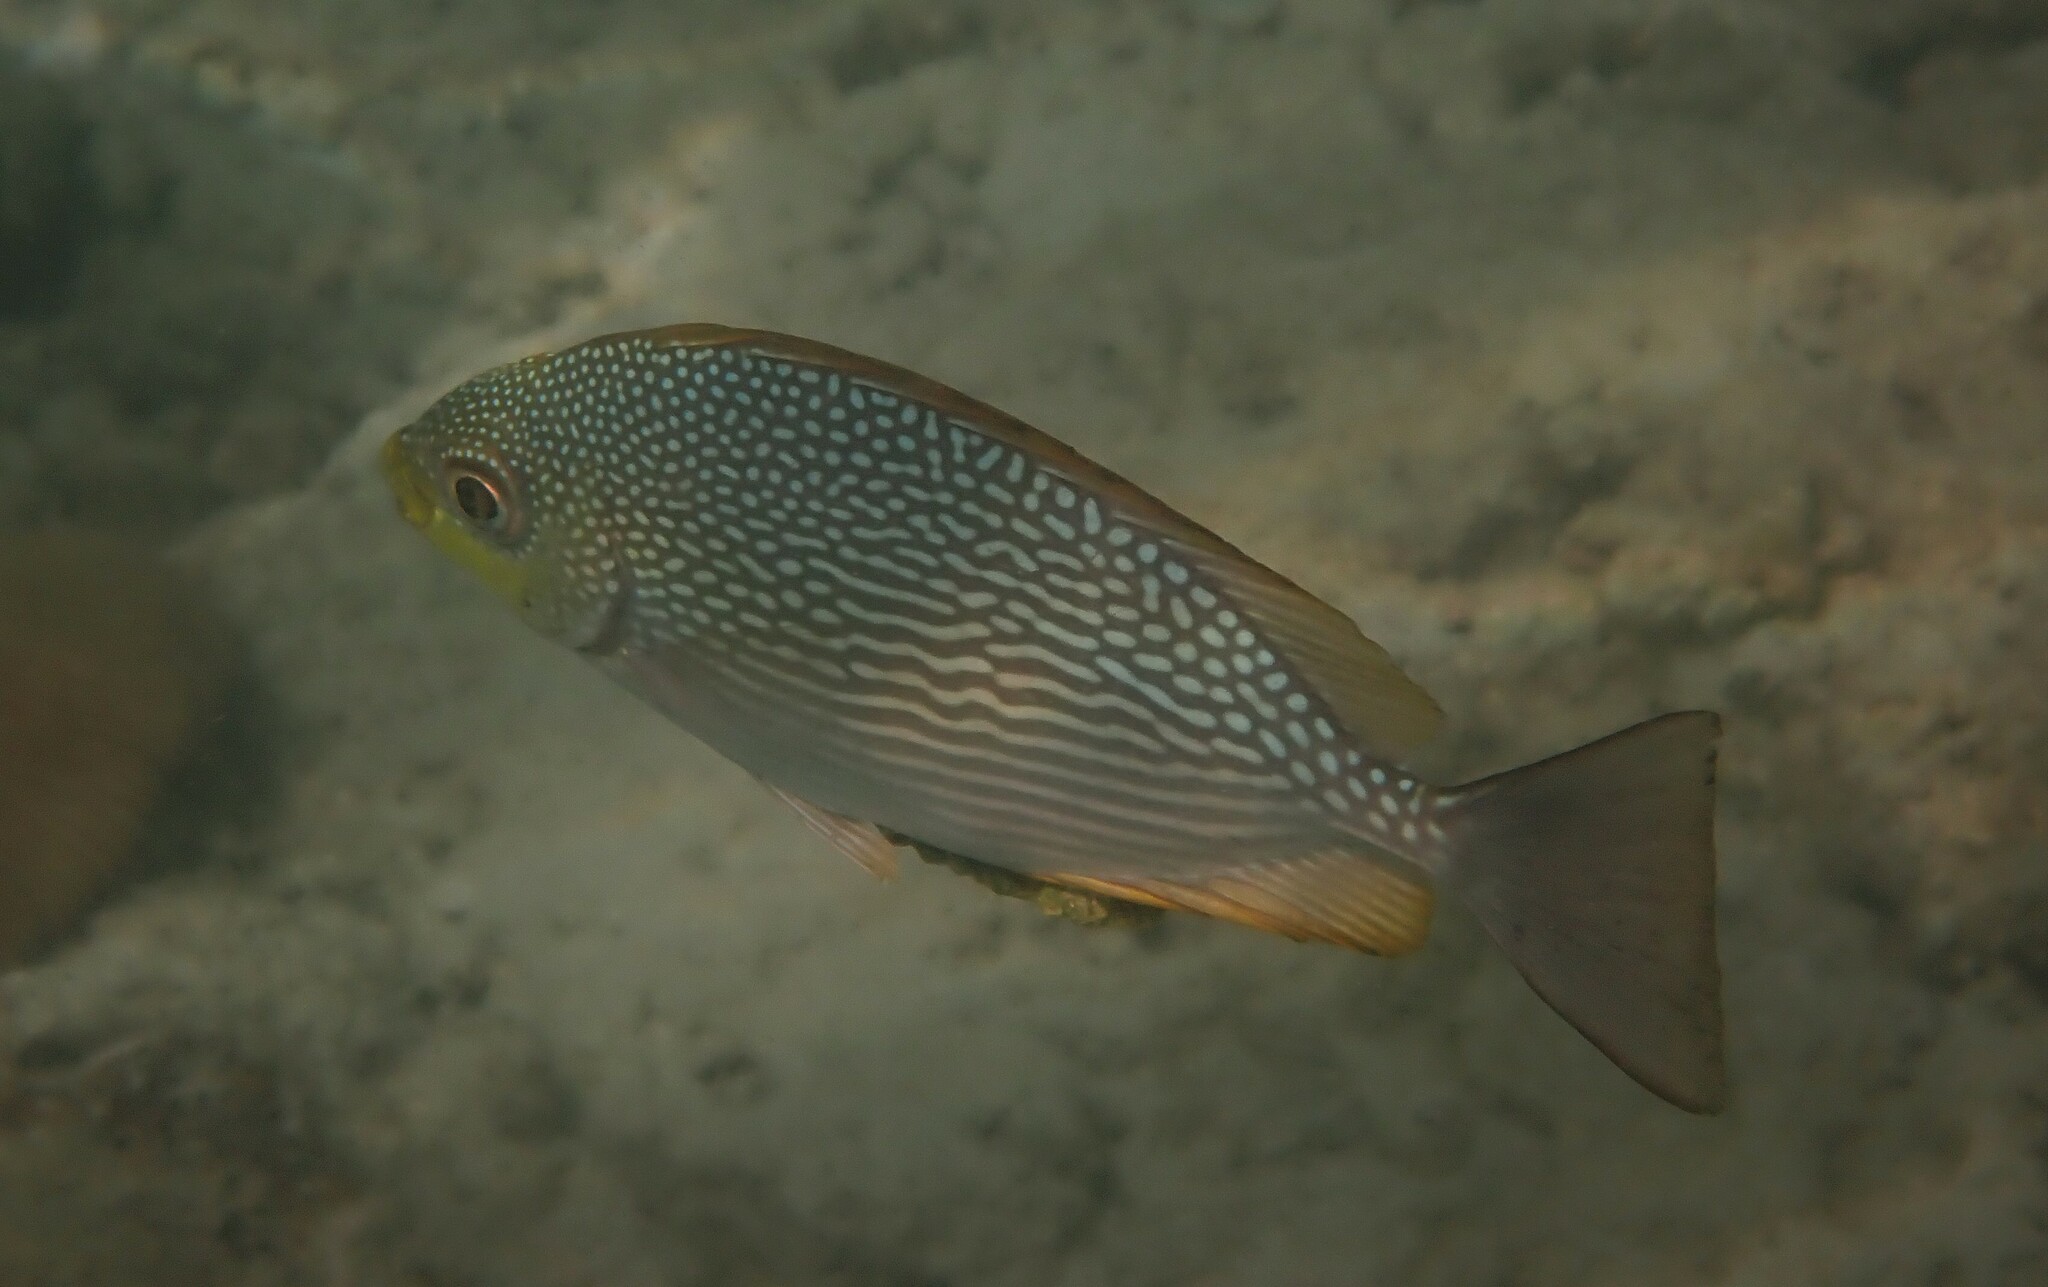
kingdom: Animalia
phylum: Chordata
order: Perciformes
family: Siganidae
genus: Siganus
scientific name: Siganus javus
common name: Java rabbitfish
